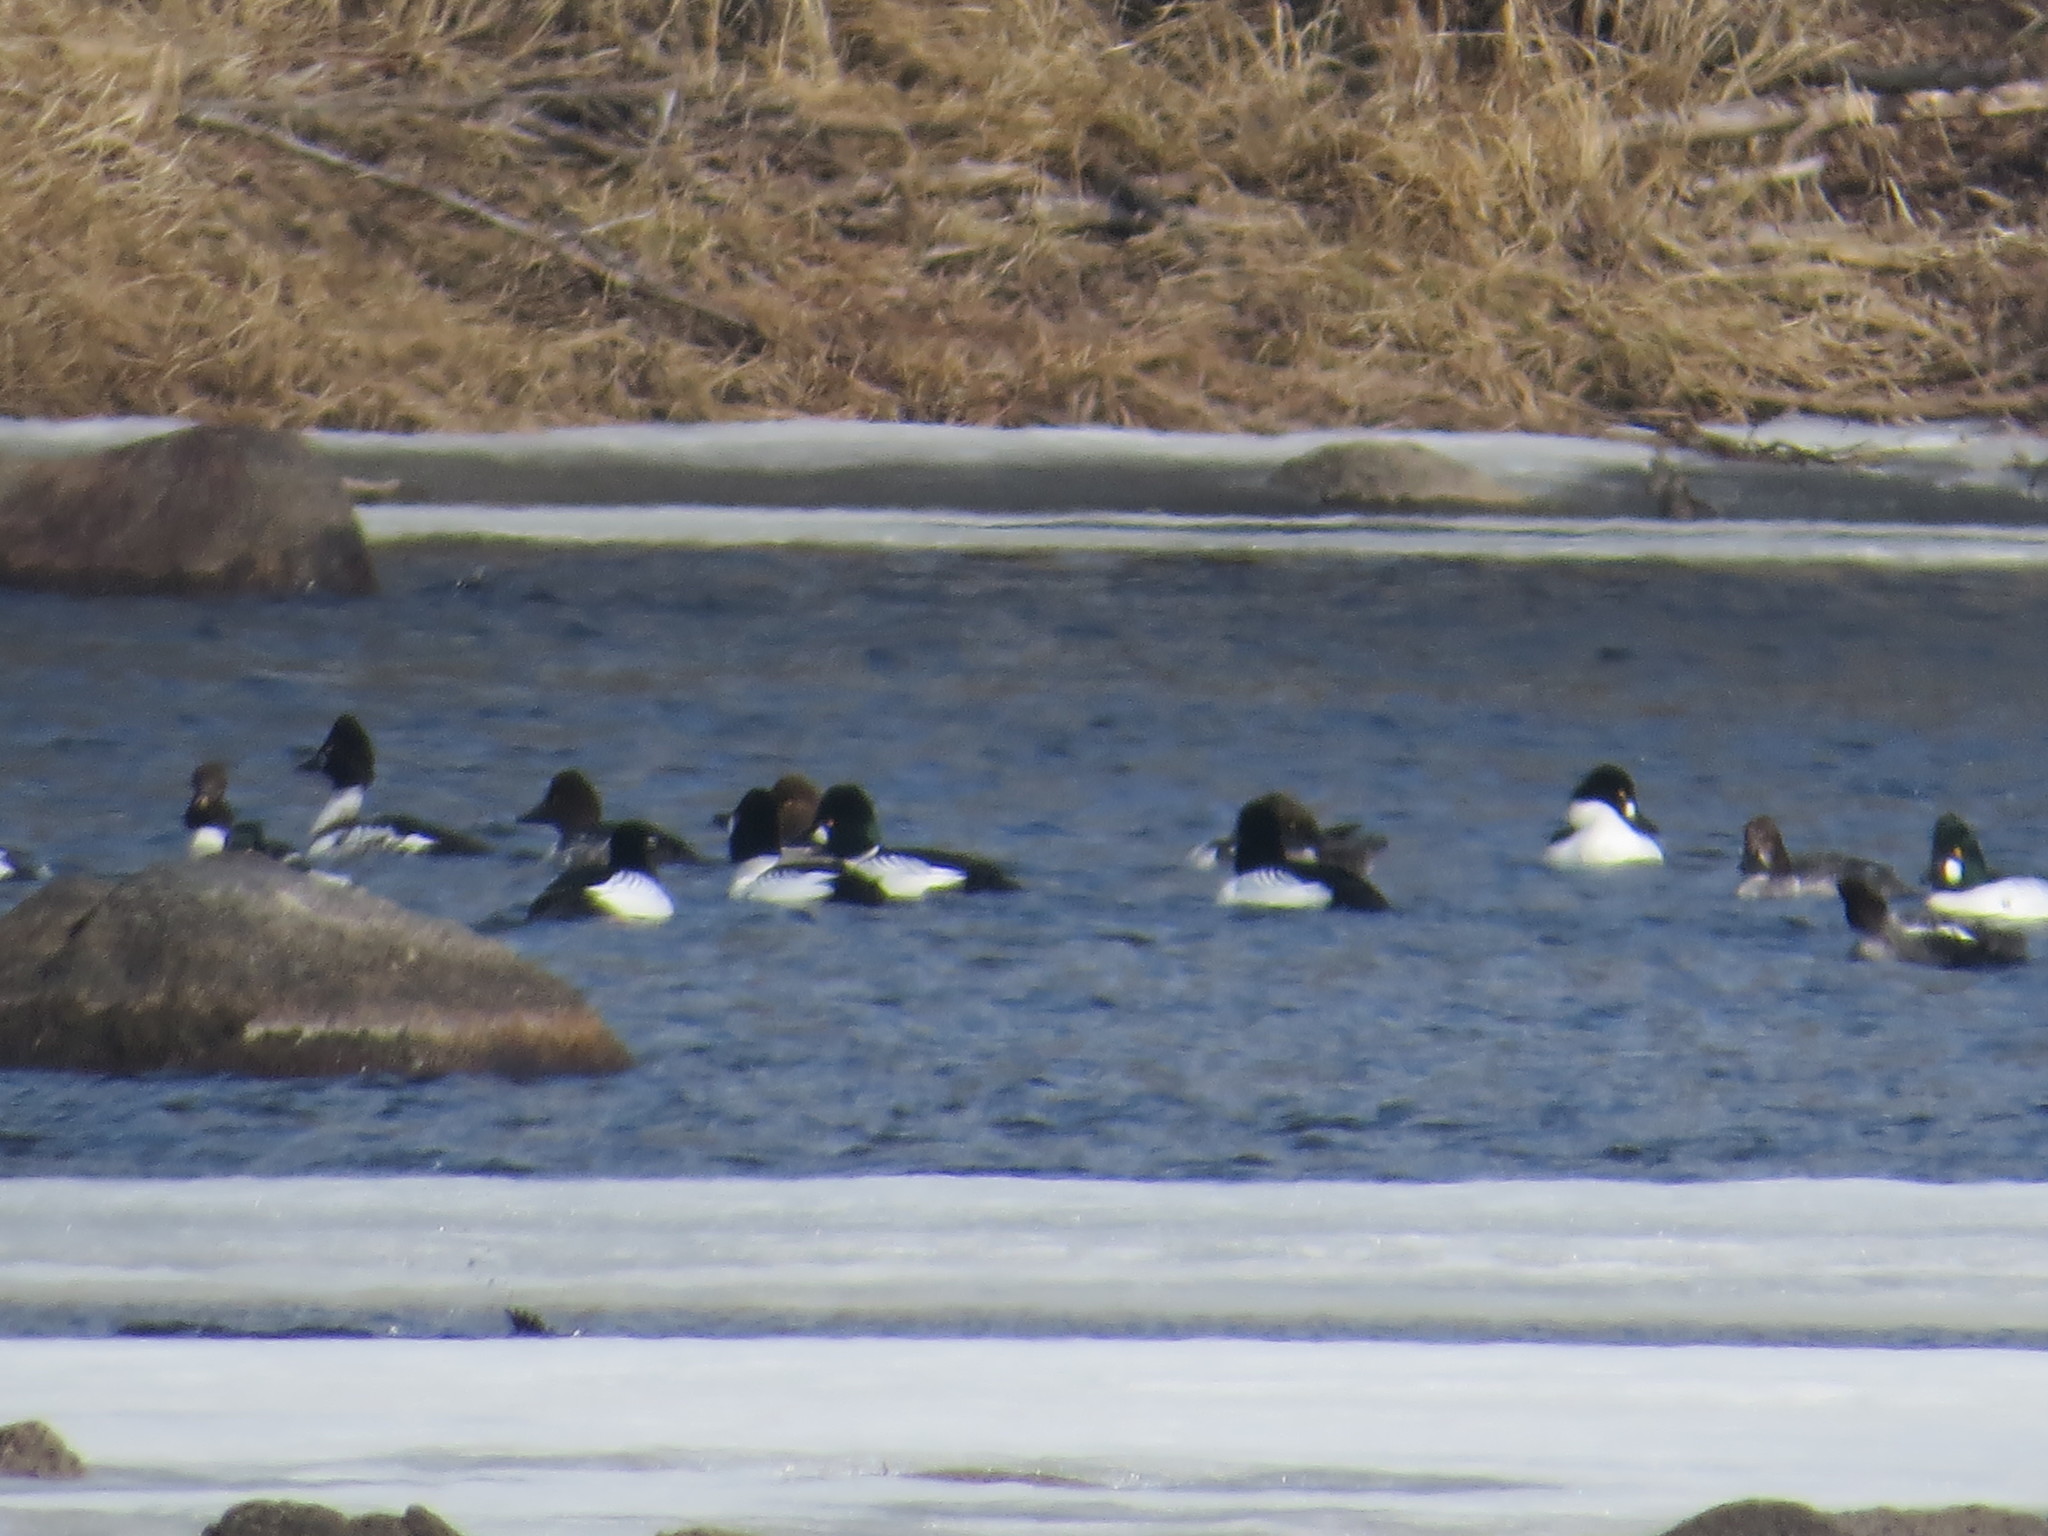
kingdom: Animalia
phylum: Chordata
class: Aves
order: Anseriformes
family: Anatidae
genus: Bucephala
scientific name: Bucephala clangula
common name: Common goldeneye
